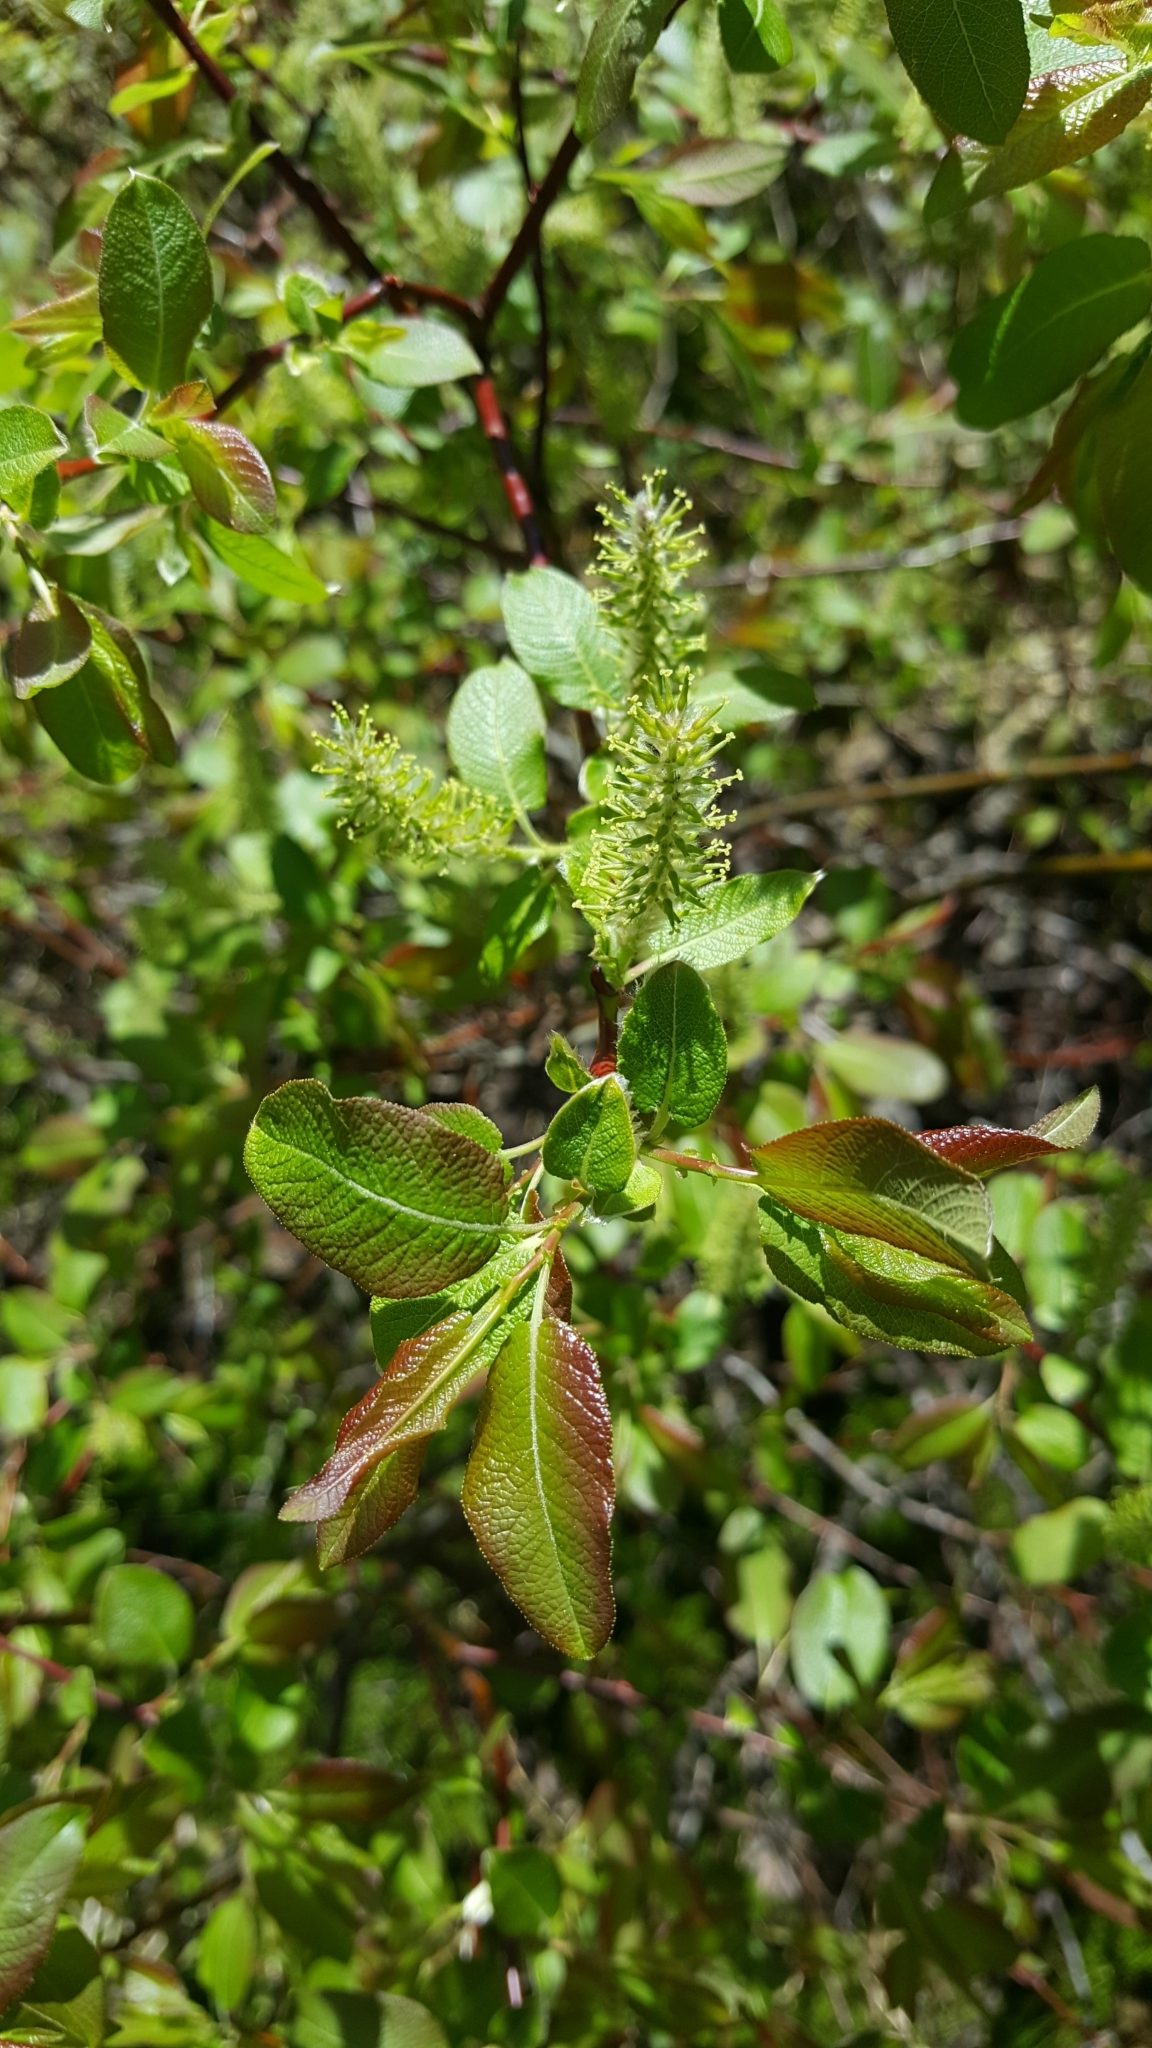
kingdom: Plantae
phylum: Tracheophyta
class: Magnoliopsida
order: Malpighiales
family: Salicaceae
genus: Salix
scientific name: Salix bebbiana
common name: Bebb's willow
